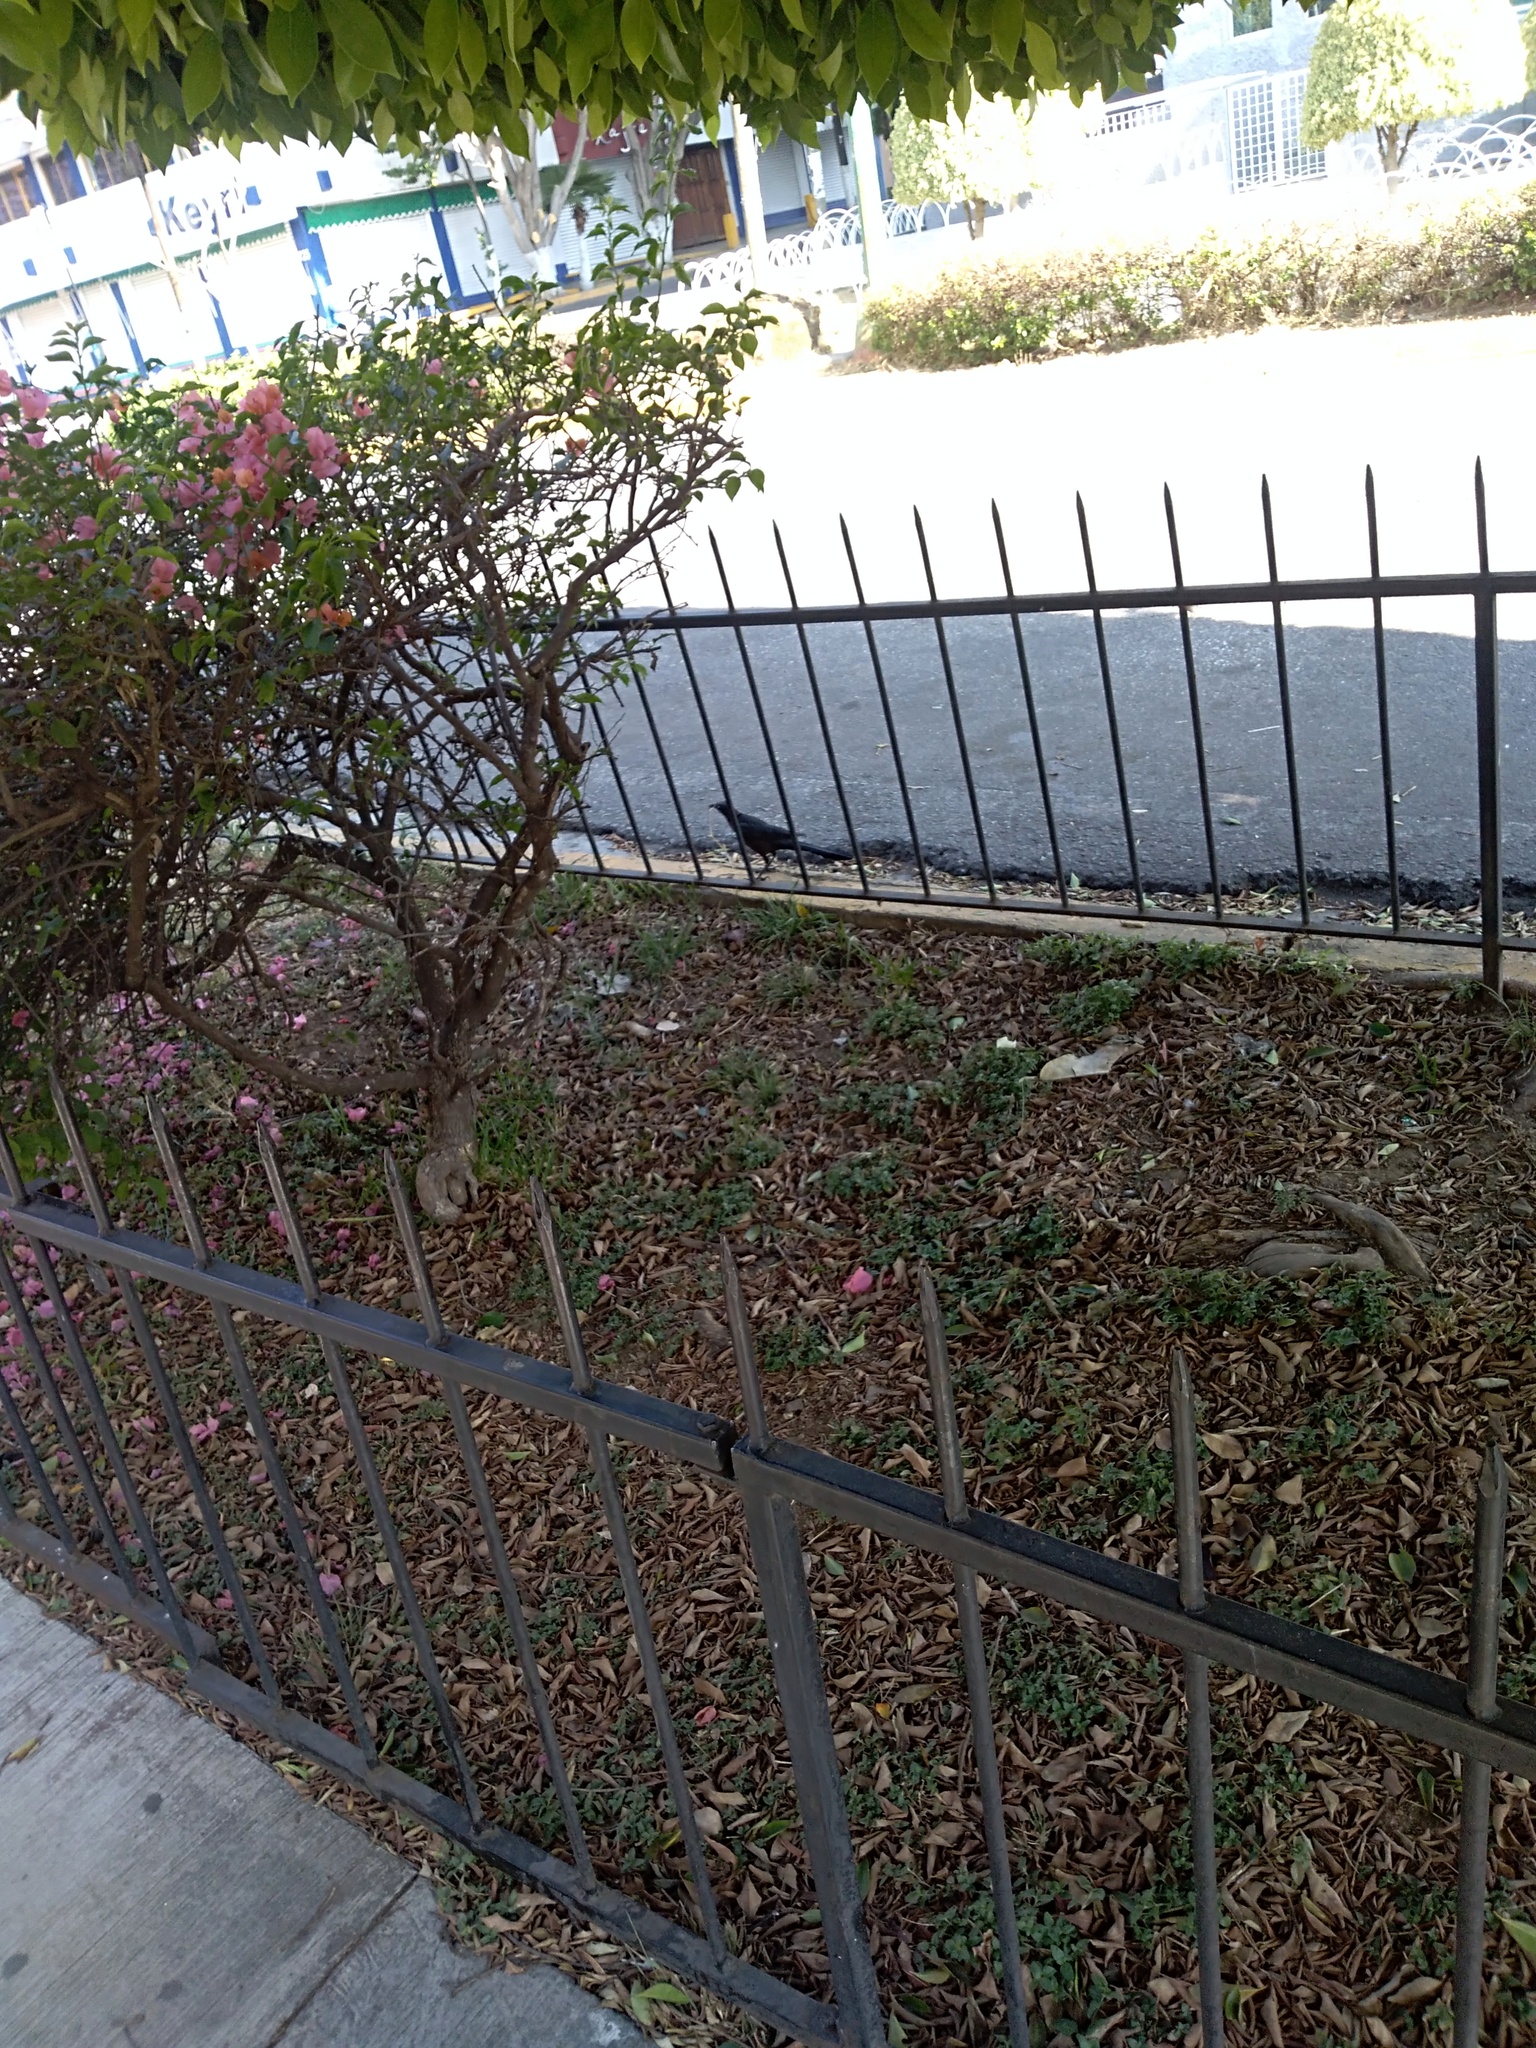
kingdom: Animalia
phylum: Chordata
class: Aves
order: Passeriformes
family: Icteridae
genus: Quiscalus
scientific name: Quiscalus mexicanus
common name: Great-tailed grackle
